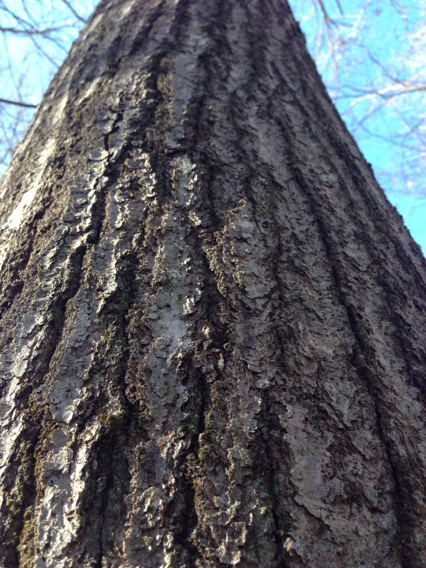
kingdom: Plantae
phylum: Tracheophyta
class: Magnoliopsida
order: Fagales
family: Fagaceae
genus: Quercus
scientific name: Quercus rubra
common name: Red oak
